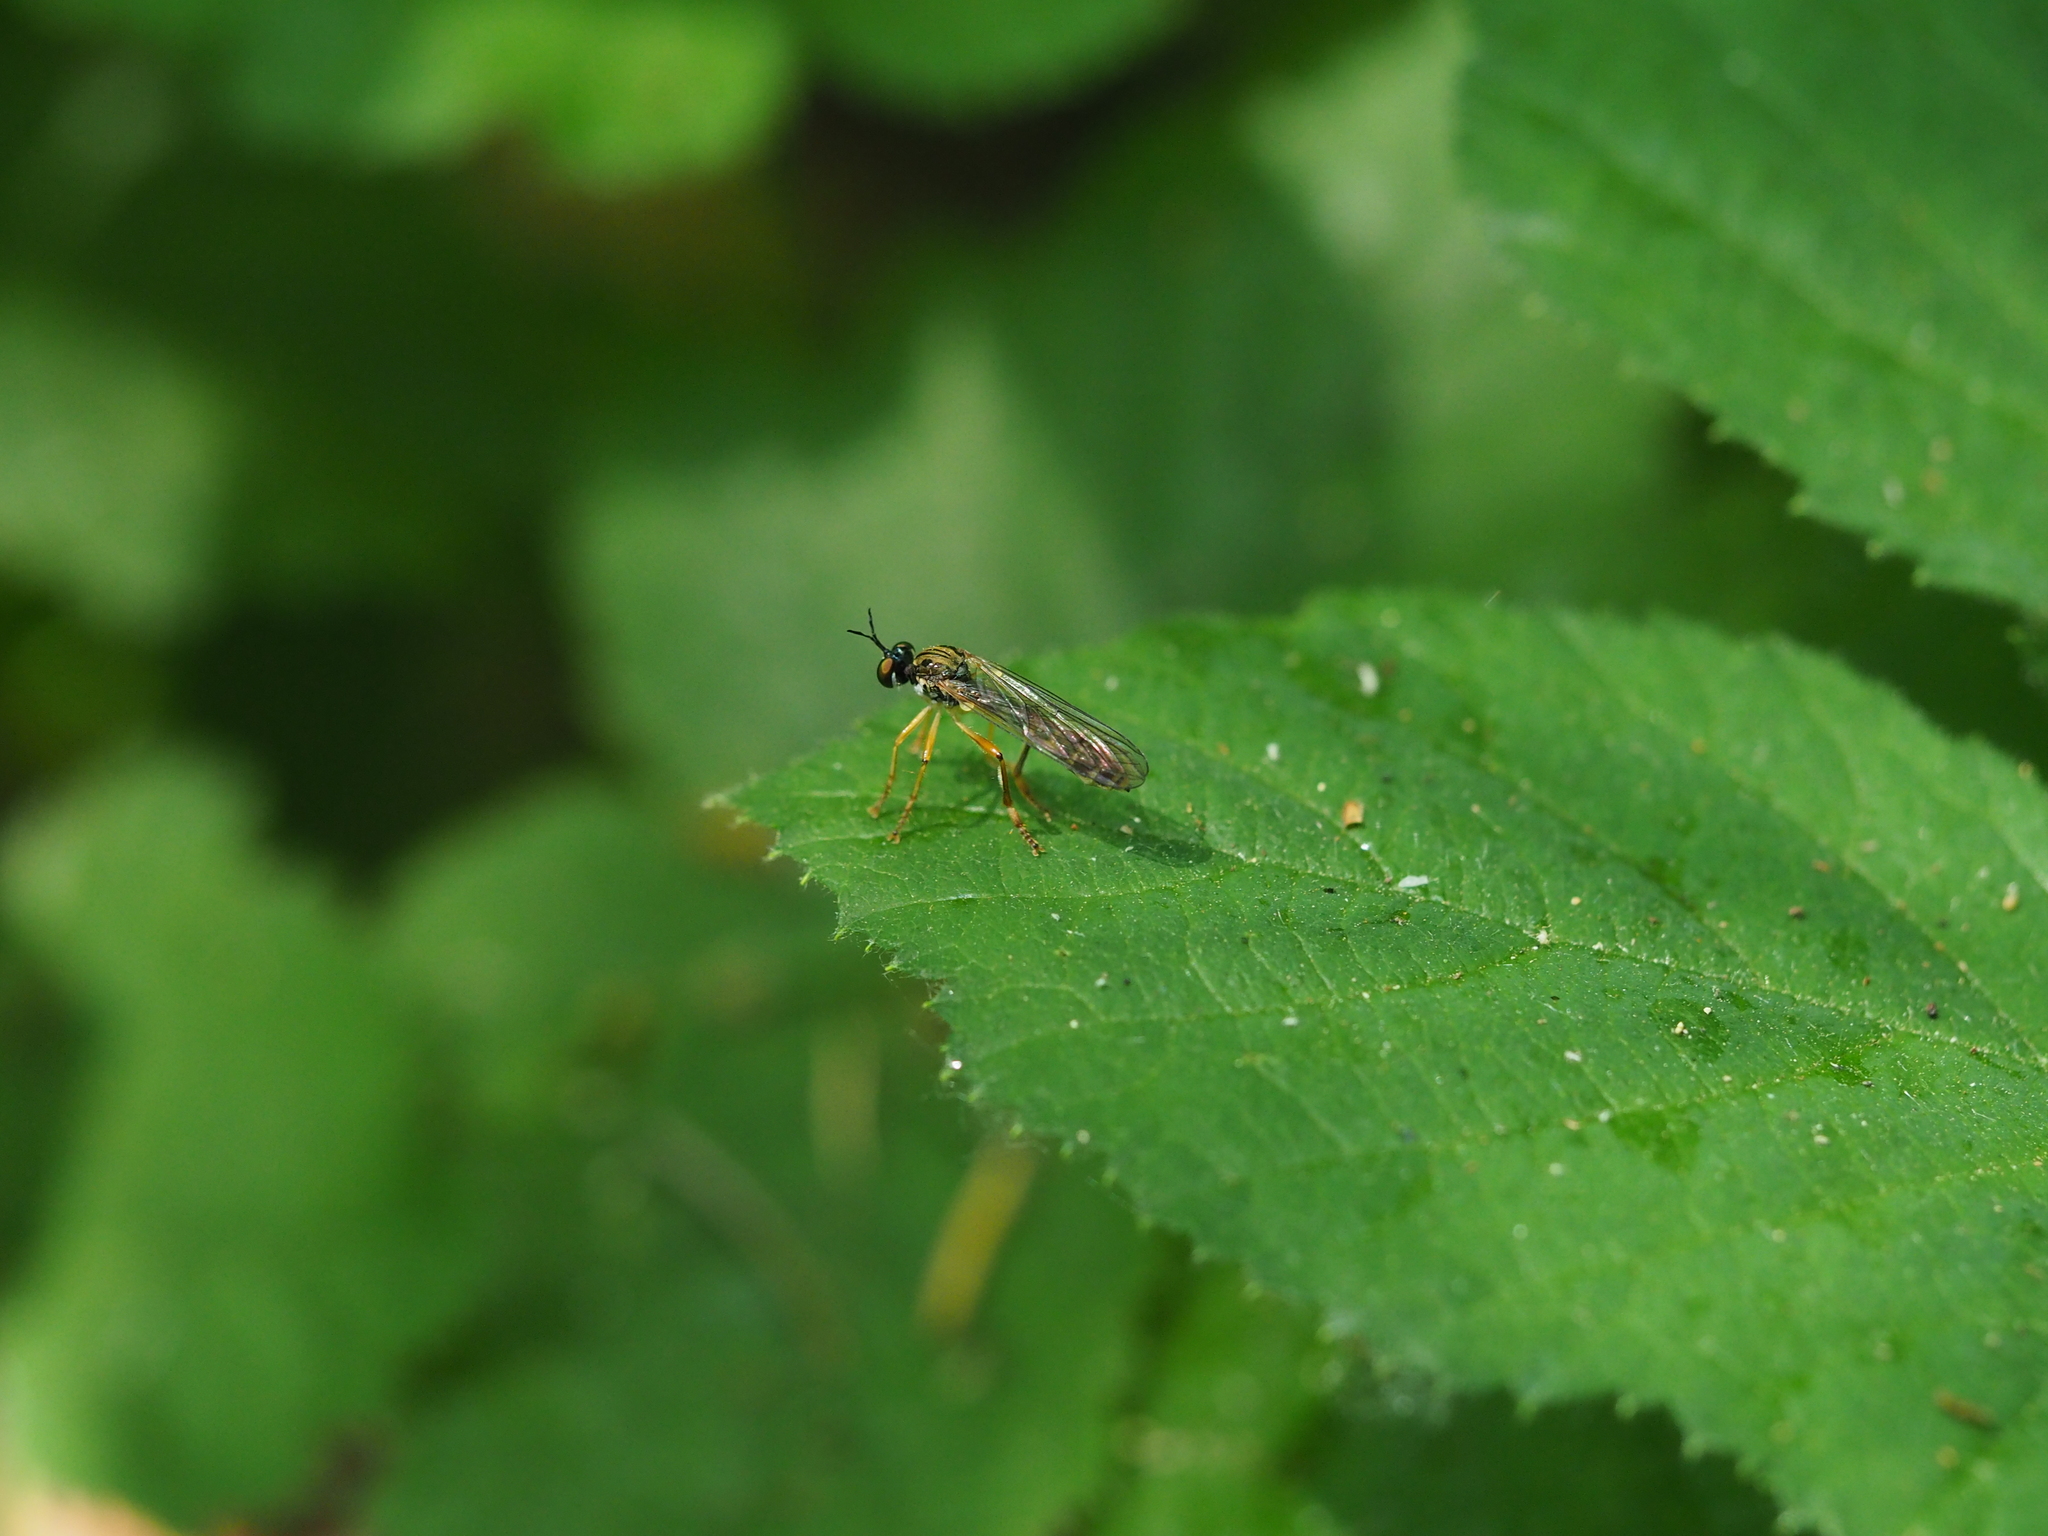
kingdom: Animalia
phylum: Arthropoda
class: Insecta
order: Diptera
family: Asilidae
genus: Dioctria
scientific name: Dioctria linearis
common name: Small yellow-legged robberfly
